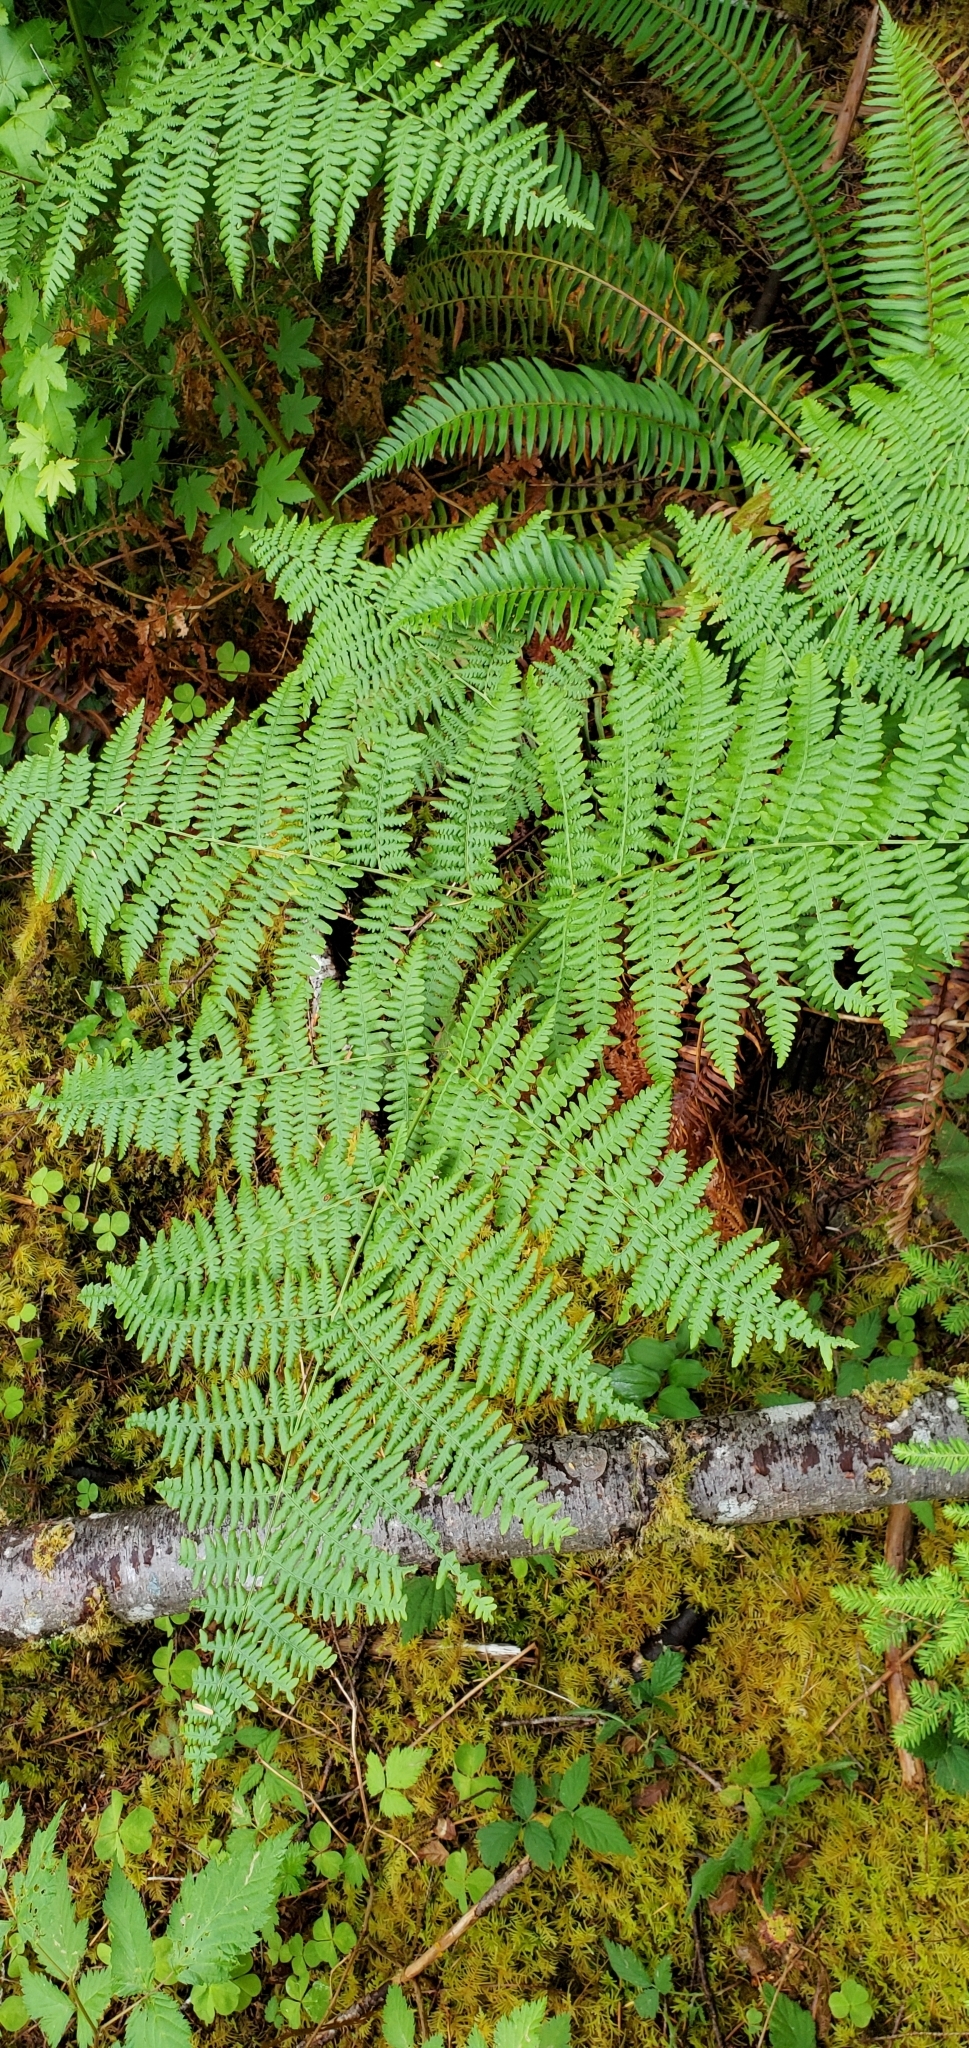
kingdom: Plantae
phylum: Tracheophyta
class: Polypodiopsida
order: Polypodiales
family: Dennstaedtiaceae
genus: Pteridium
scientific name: Pteridium aquilinum
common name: Bracken
